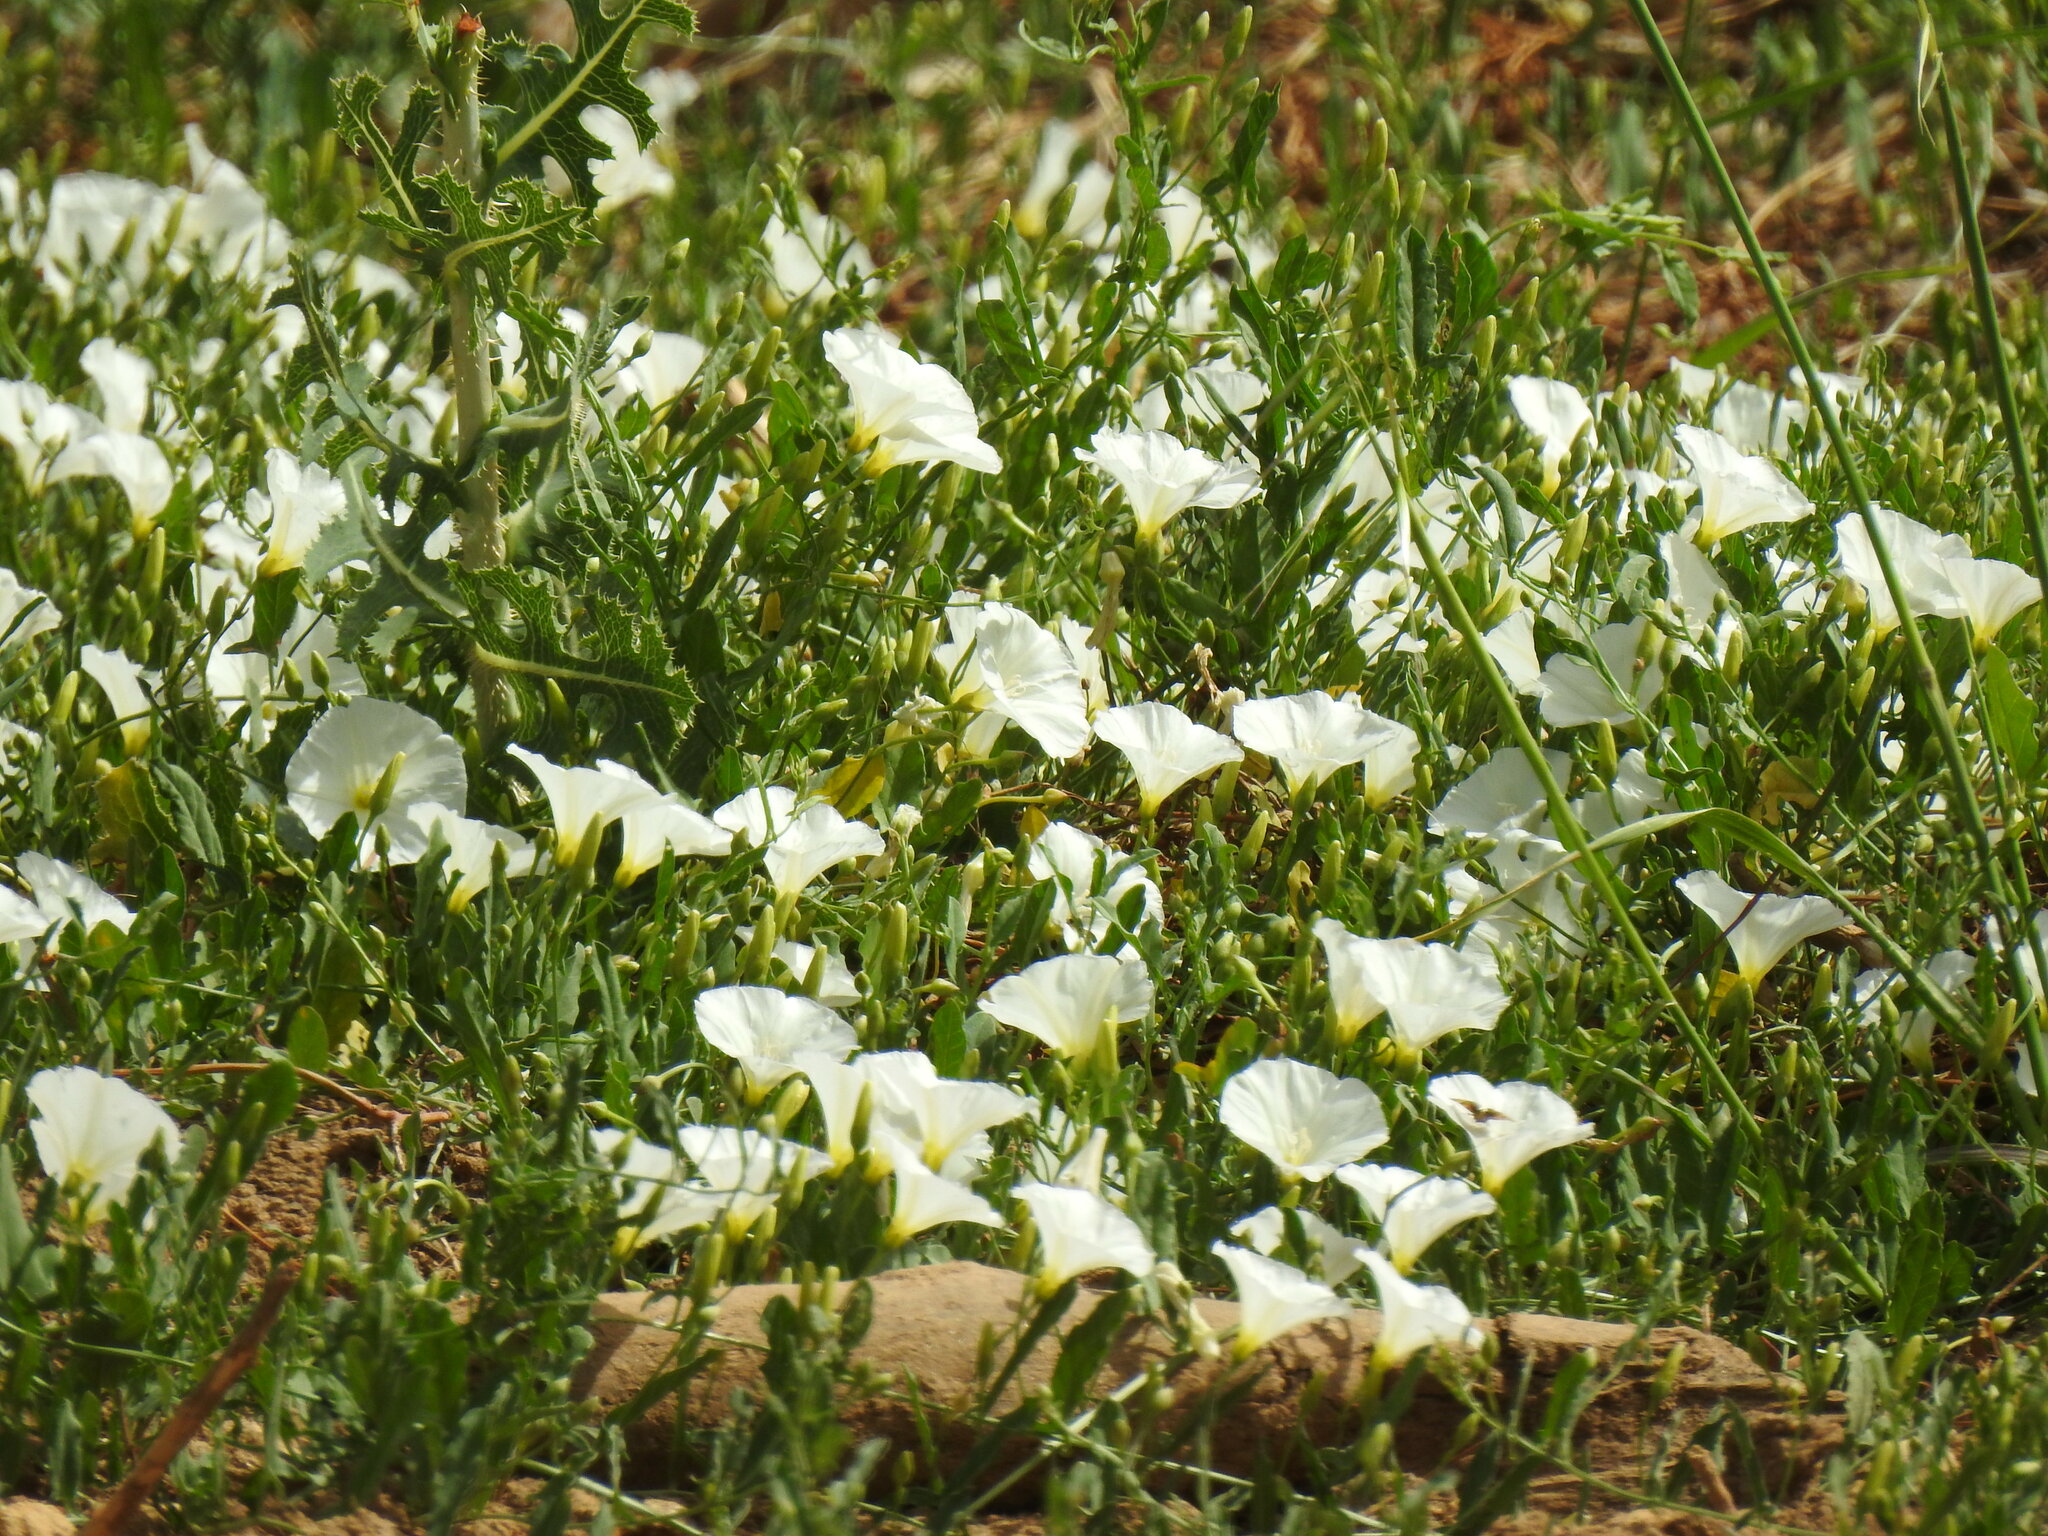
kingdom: Plantae
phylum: Tracheophyta
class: Magnoliopsida
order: Solanales
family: Convolvulaceae
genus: Convolvulus
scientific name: Convolvulus arvensis
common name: Field bindweed
